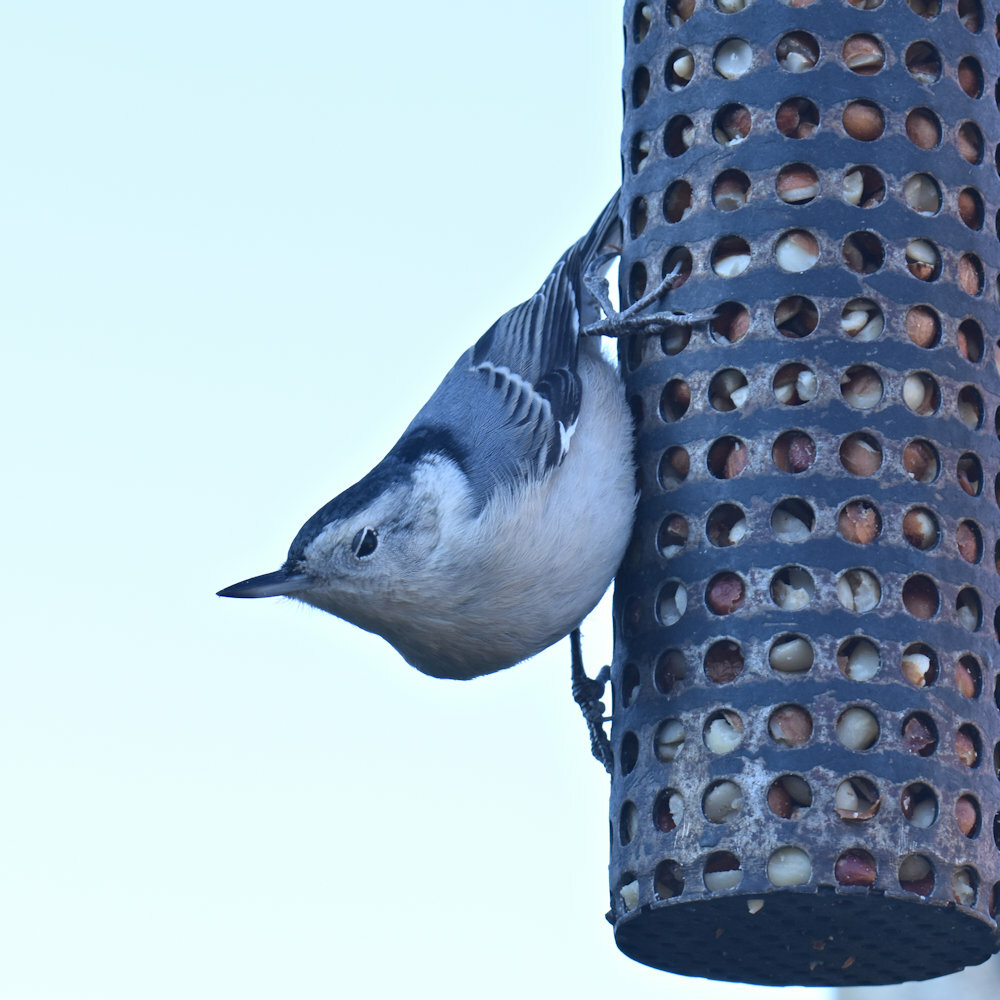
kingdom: Animalia
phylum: Chordata
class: Aves
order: Passeriformes
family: Sittidae
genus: Sitta
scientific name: Sitta carolinensis
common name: White-breasted nuthatch
